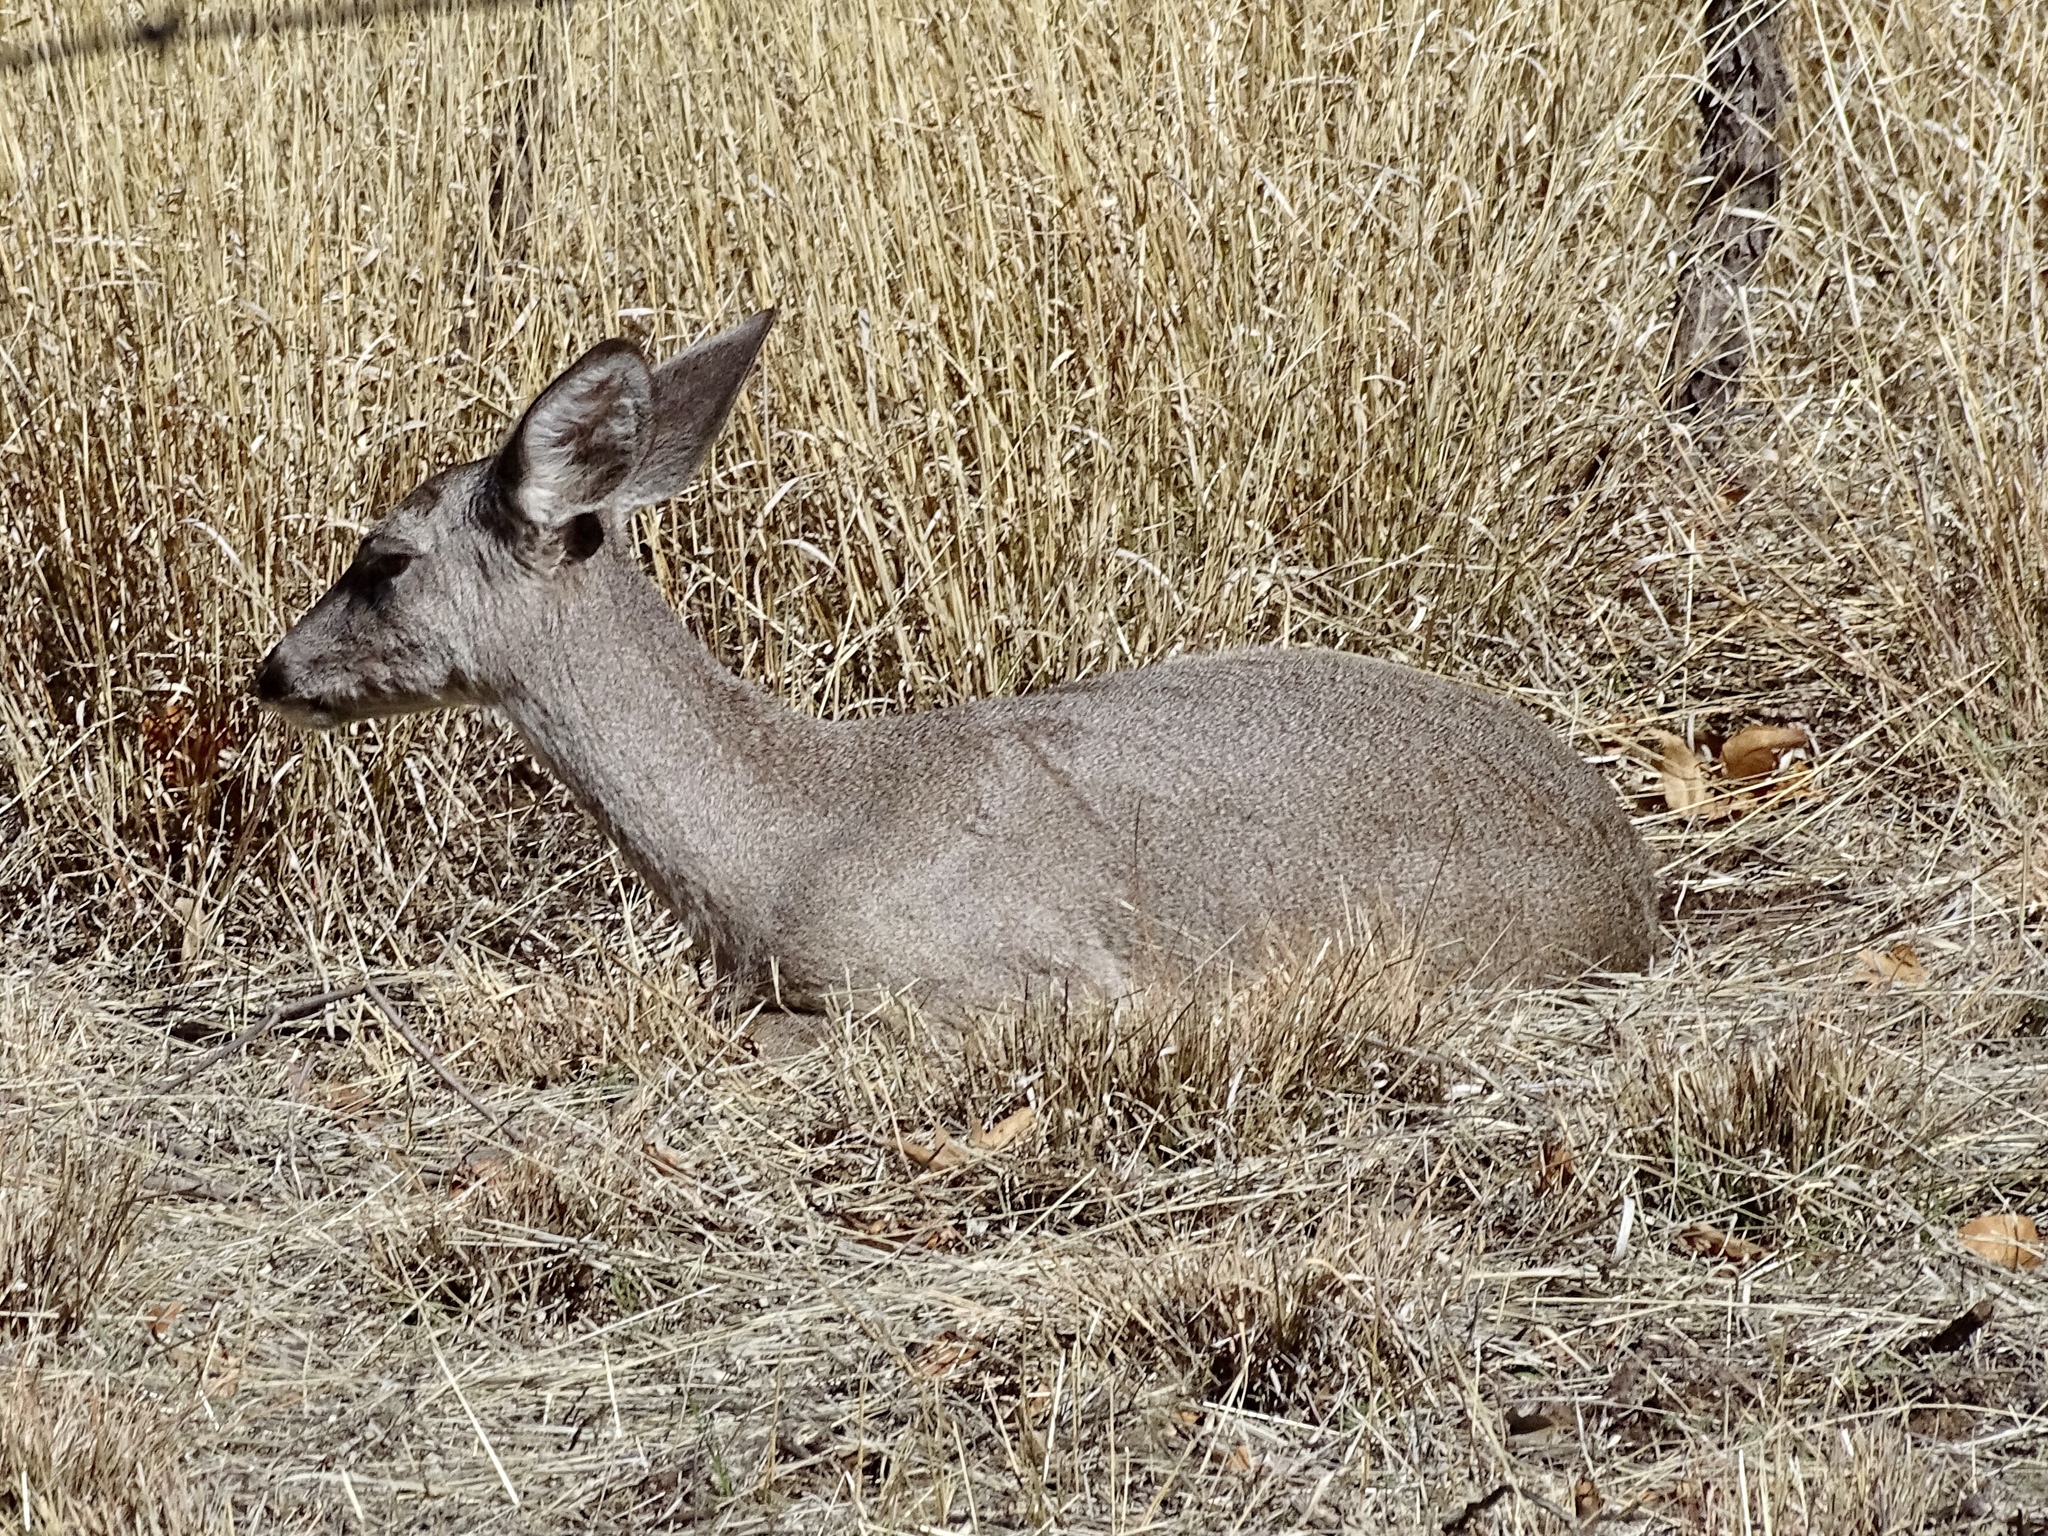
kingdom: Animalia
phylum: Chordata
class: Mammalia
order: Artiodactyla
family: Cervidae
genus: Odocoileus
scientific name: Odocoileus virginianus
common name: White-tailed deer
